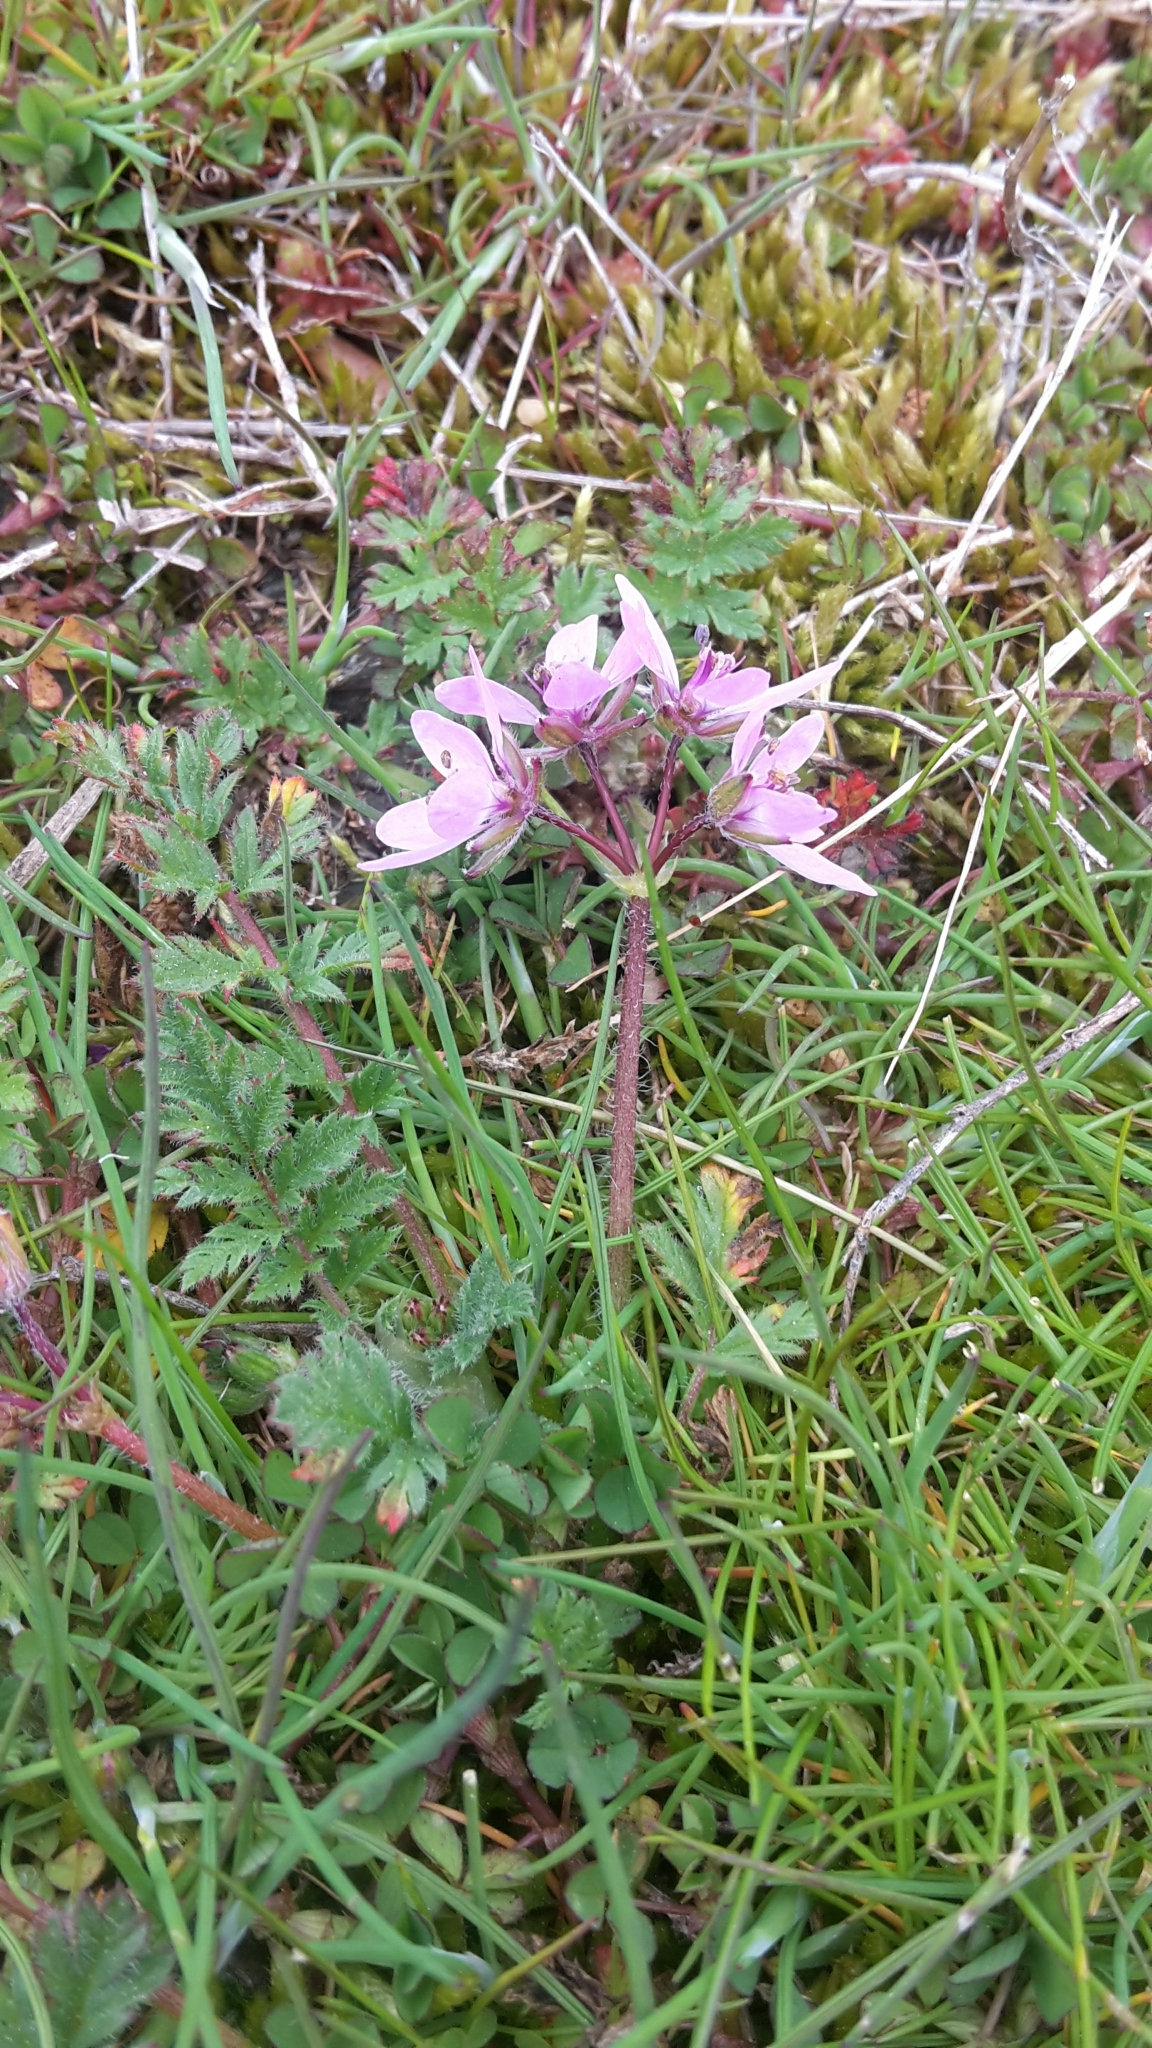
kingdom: Plantae
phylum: Tracheophyta
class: Magnoliopsida
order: Geraniales
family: Geraniaceae
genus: Erodium
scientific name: Erodium cicutarium
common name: Common stork's-bill
